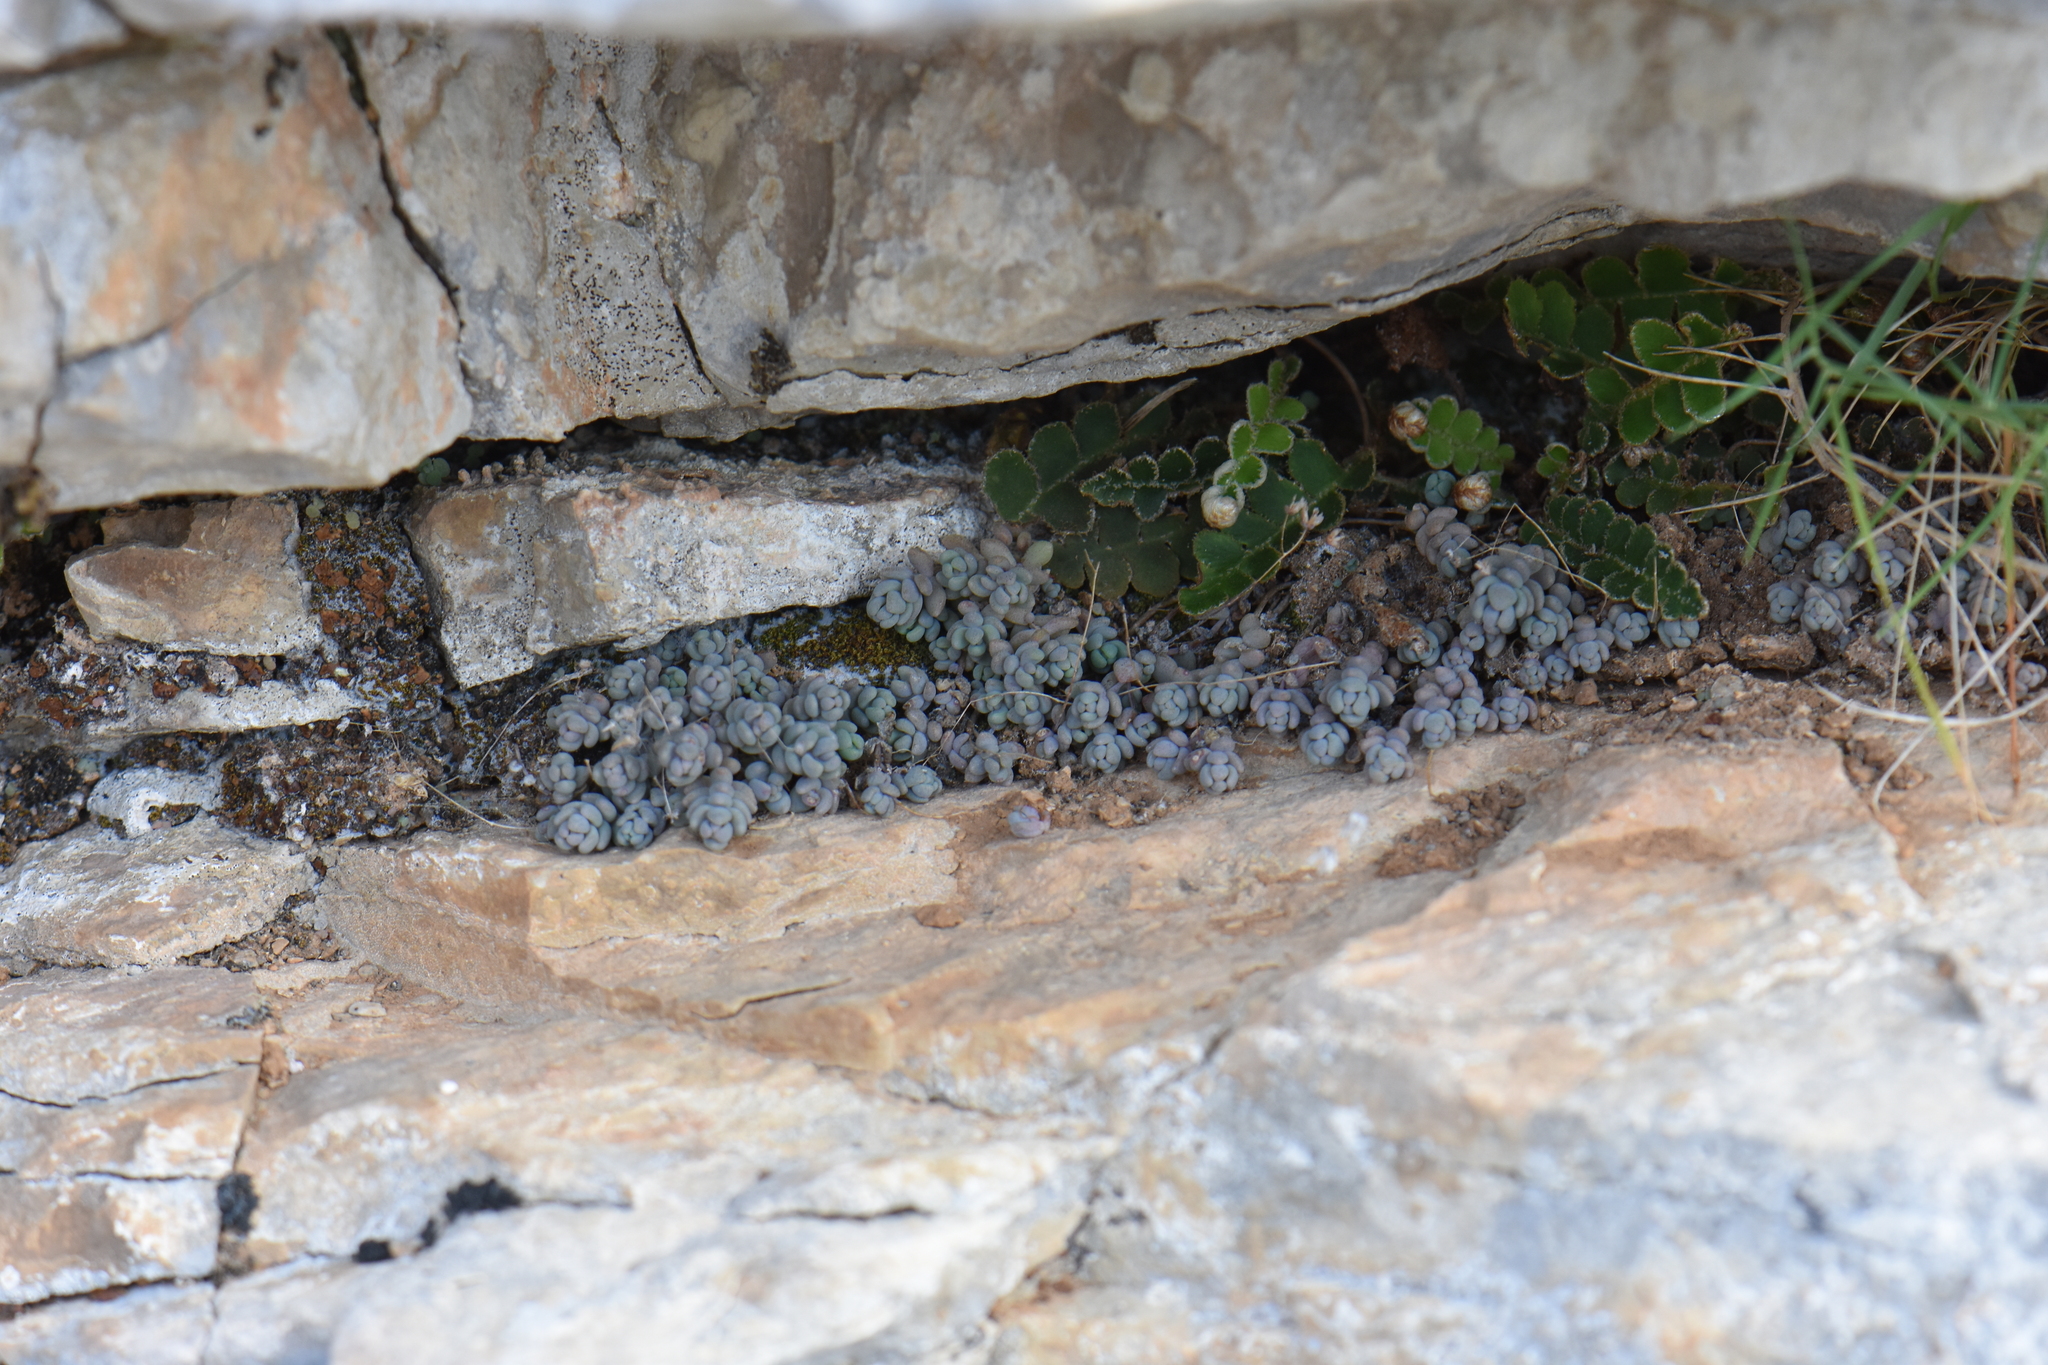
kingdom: Plantae
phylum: Tracheophyta
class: Magnoliopsida
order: Saxifragales
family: Crassulaceae
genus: Sedum
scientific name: Sedum dasyphyllum
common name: Thick-leaf stonecrop
